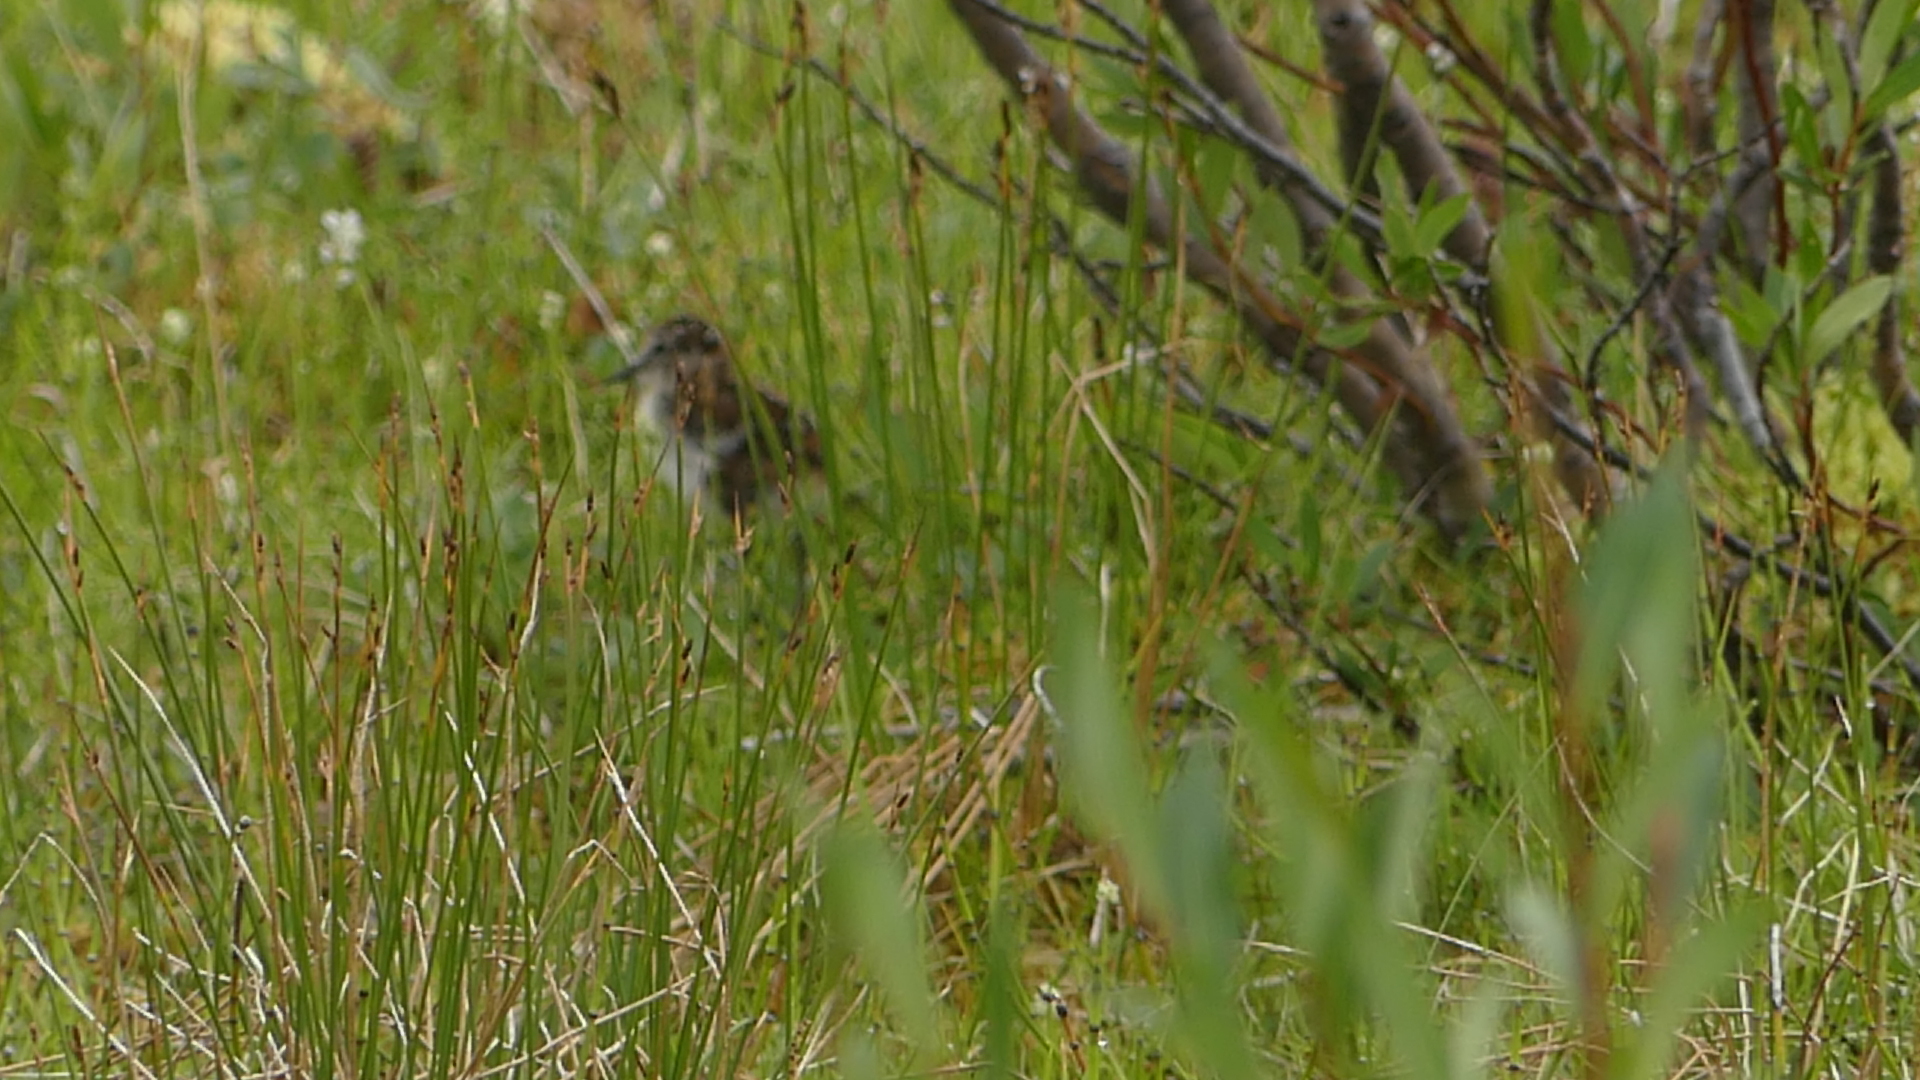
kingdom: Animalia
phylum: Chordata
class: Aves
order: Charadriiformes
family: Scolopacidae
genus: Calidris
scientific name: Calidris minutilla
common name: Least sandpiper
